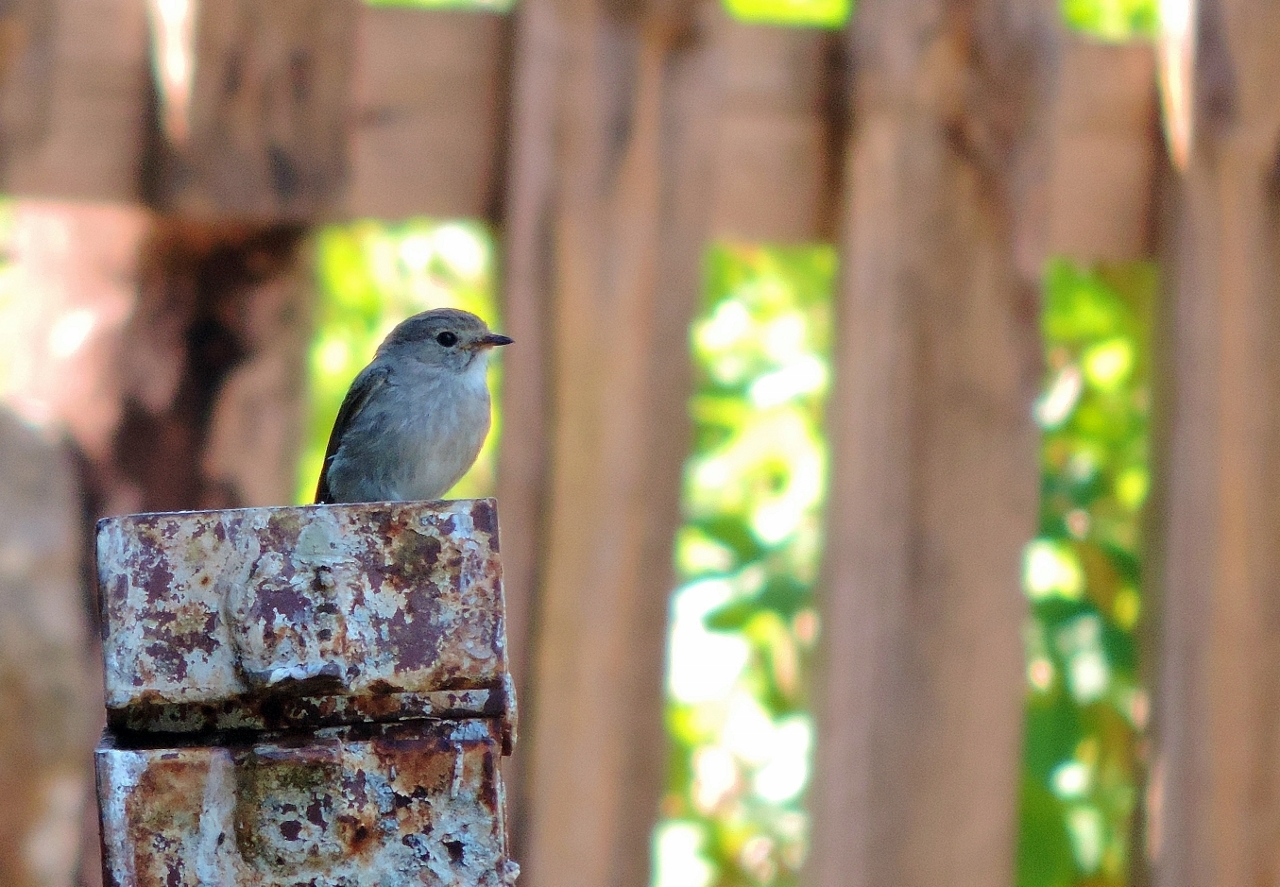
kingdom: Animalia
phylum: Chordata
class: Aves
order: Passeriformes
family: Muscicapidae
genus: Muscicapa
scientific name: Muscicapa adusta
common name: African dusky flycatcher
